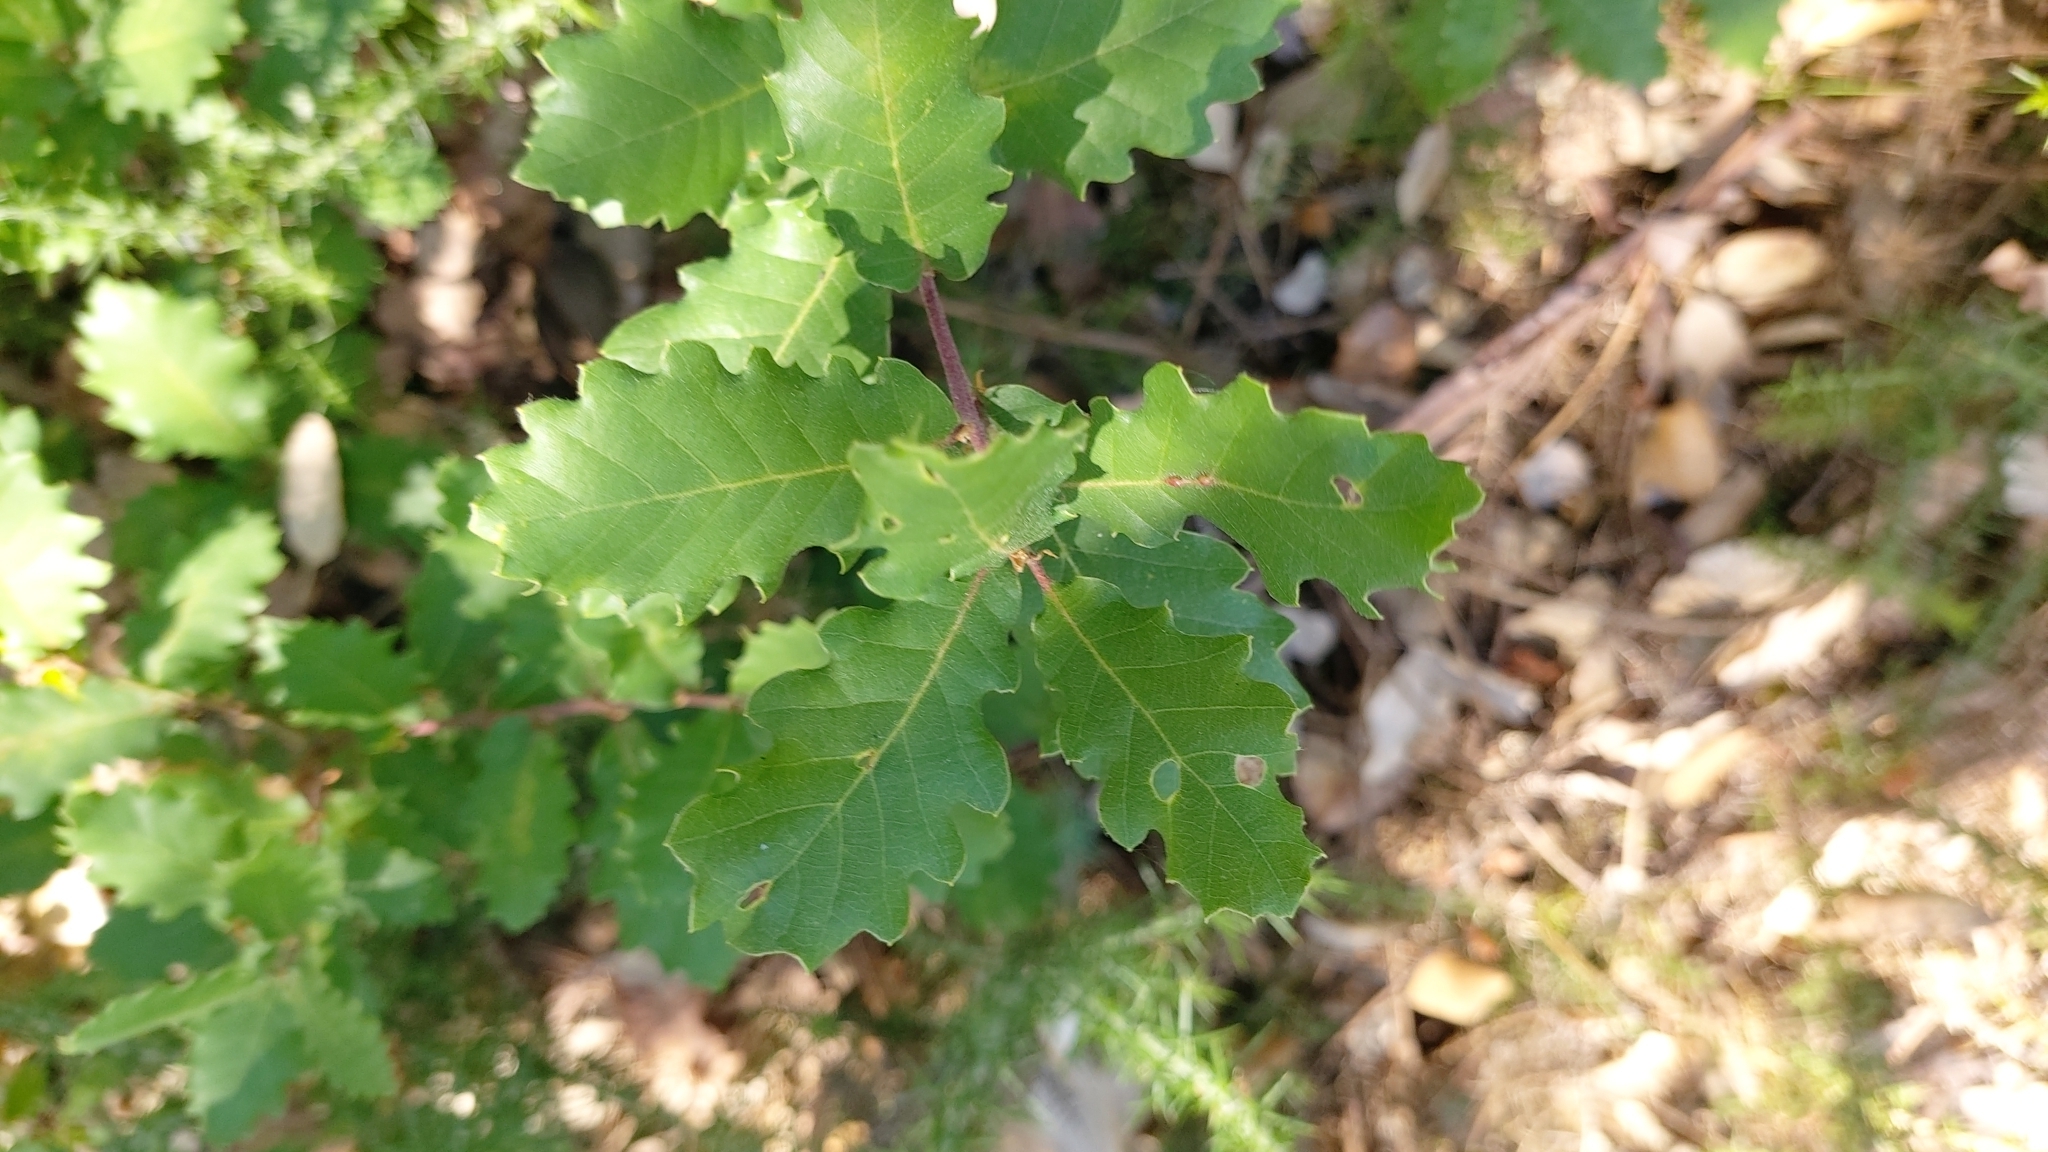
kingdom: Plantae
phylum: Tracheophyta
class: Magnoliopsida
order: Fagales
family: Fagaceae
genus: Quercus
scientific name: Quercus faginea
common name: Gall oak tree
